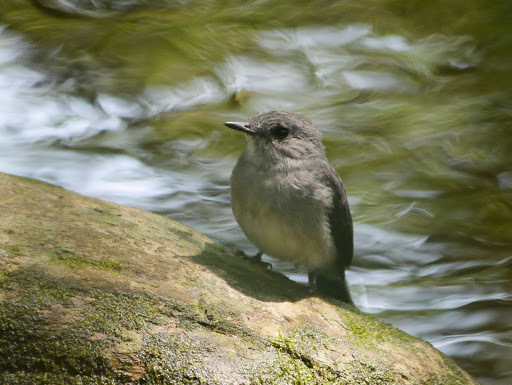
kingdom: Animalia
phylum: Chordata
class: Aves
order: Passeriformes
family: Muscicapidae
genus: Muscicapa
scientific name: Muscicapa cassini
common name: Cassin's flycatcher
